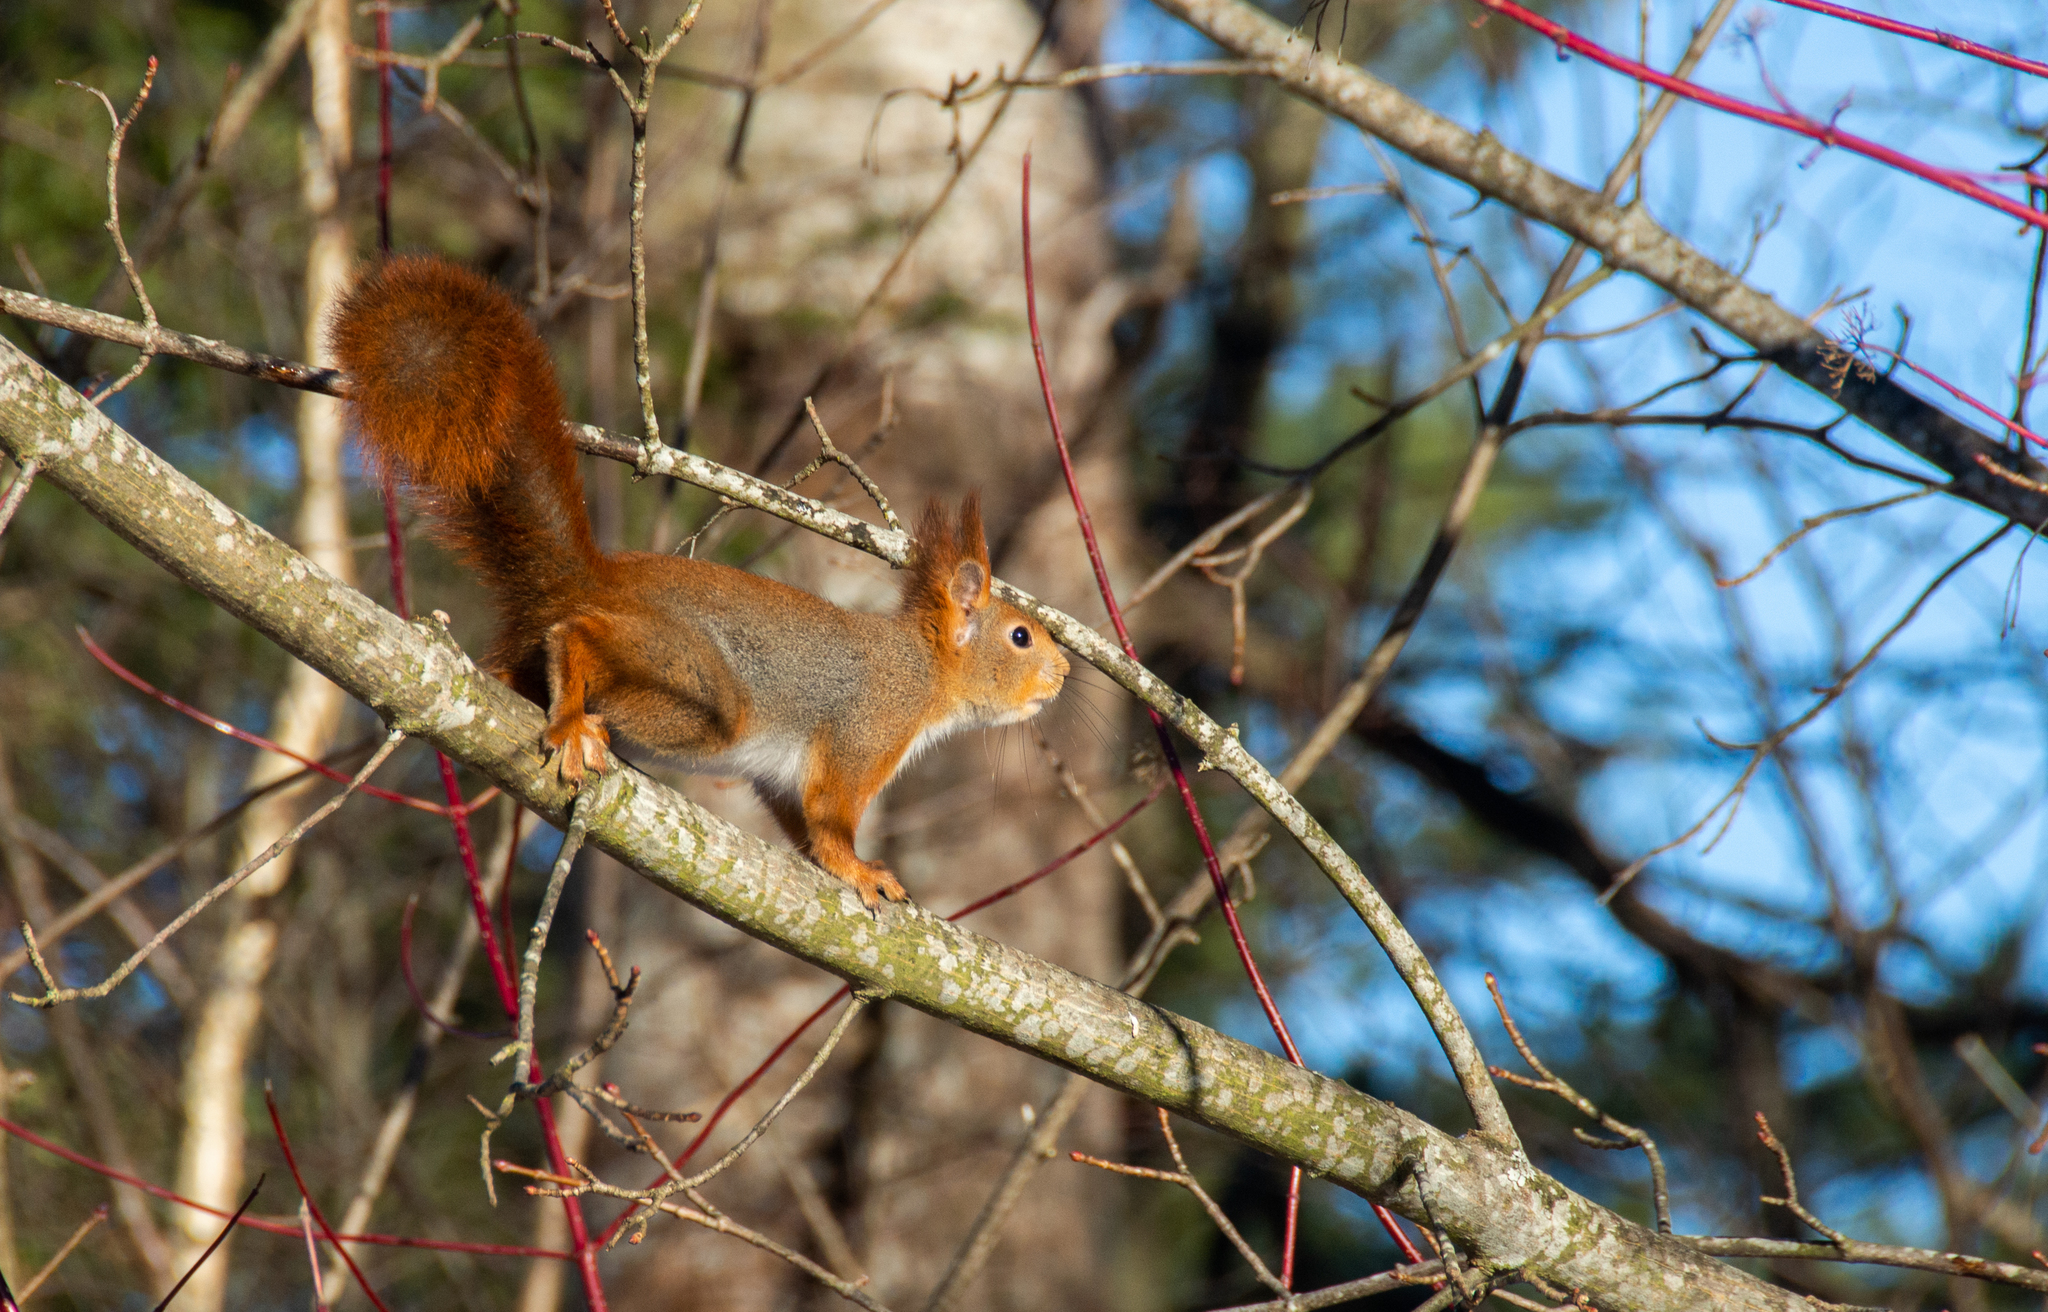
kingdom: Animalia
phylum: Chordata
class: Mammalia
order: Rodentia
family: Sciuridae
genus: Sciurus
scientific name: Sciurus vulgaris
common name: Eurasian red squirrel
